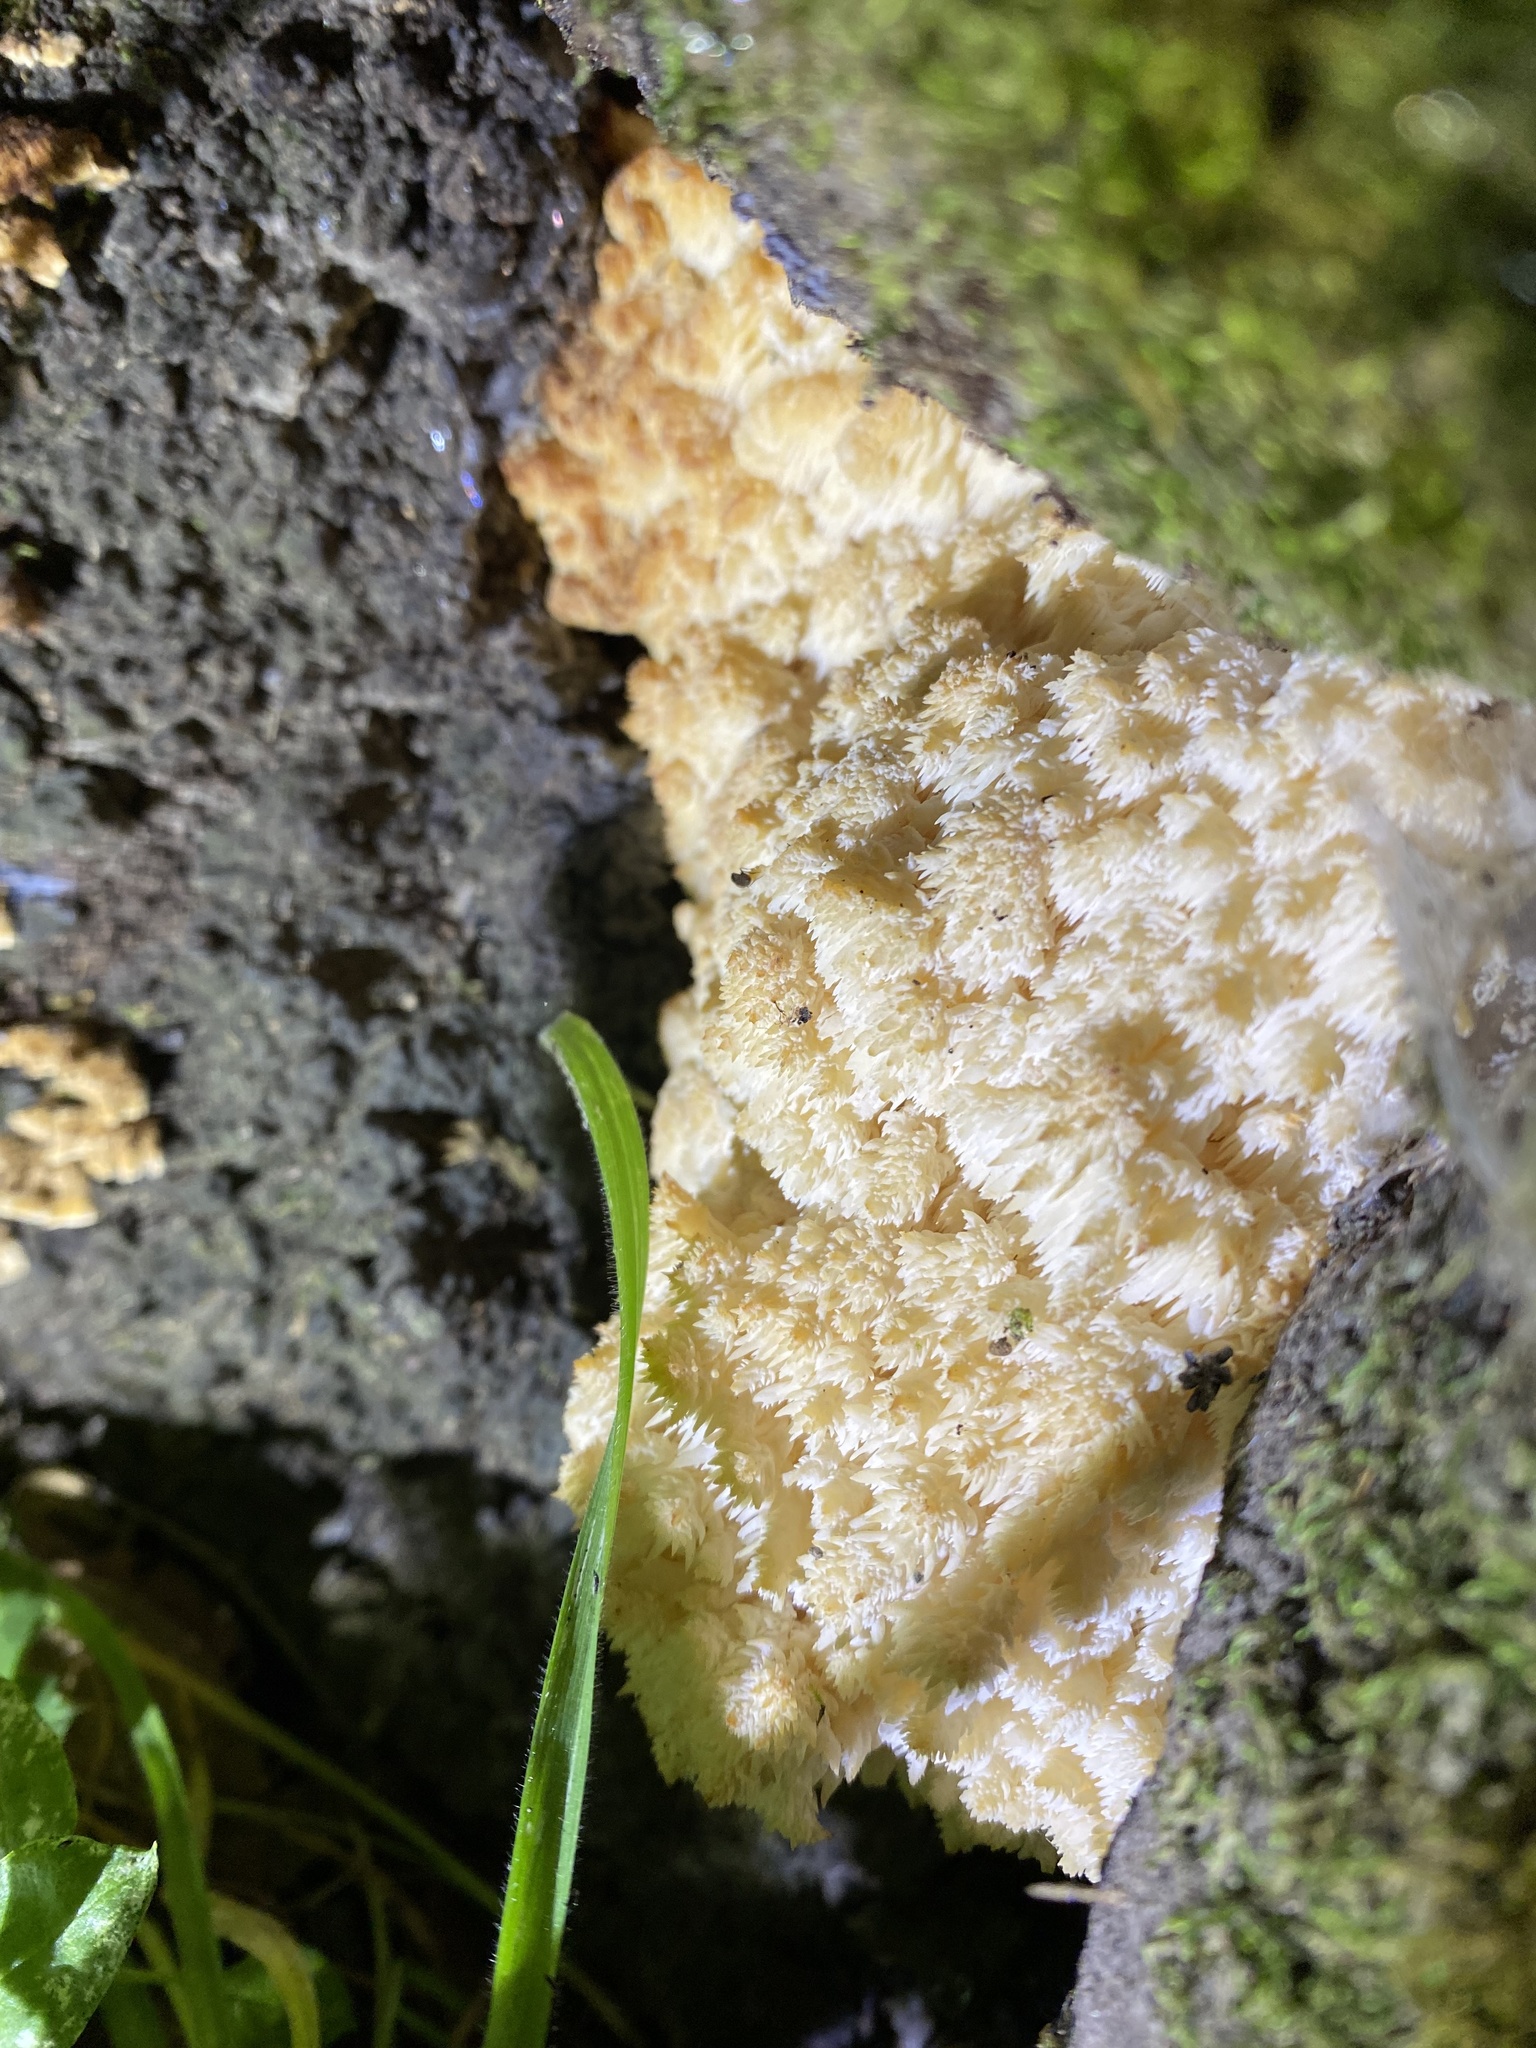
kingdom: Fungi
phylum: Basidiomycota
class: Agaricomycetes
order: Russulales
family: Hericiaceae
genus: Hericium
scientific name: Hericium coralloides
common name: Coral tooth
